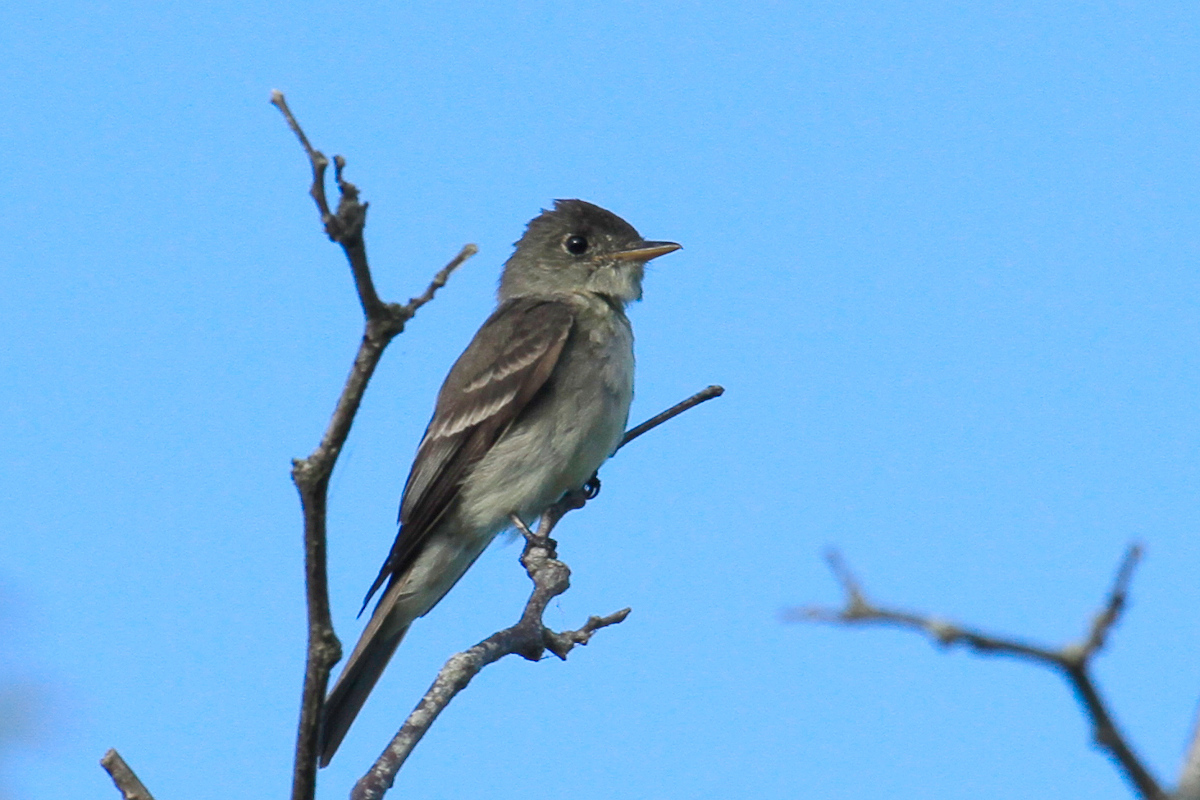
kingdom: Animalia
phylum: Chordata
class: Aves
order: Passeriformes
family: Tyrannidae
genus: Contopus
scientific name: Contopus virens
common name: Eastern wood-pewee
